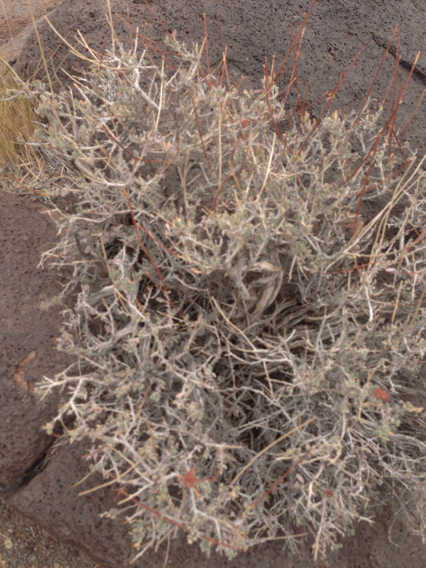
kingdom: Plantae
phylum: Tracheophyta
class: Magnoliopsida
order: Caryophyllales
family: Polygonaceae
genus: Eriogonum
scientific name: Eriogonum fasciculatum
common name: California wild buckwheat
